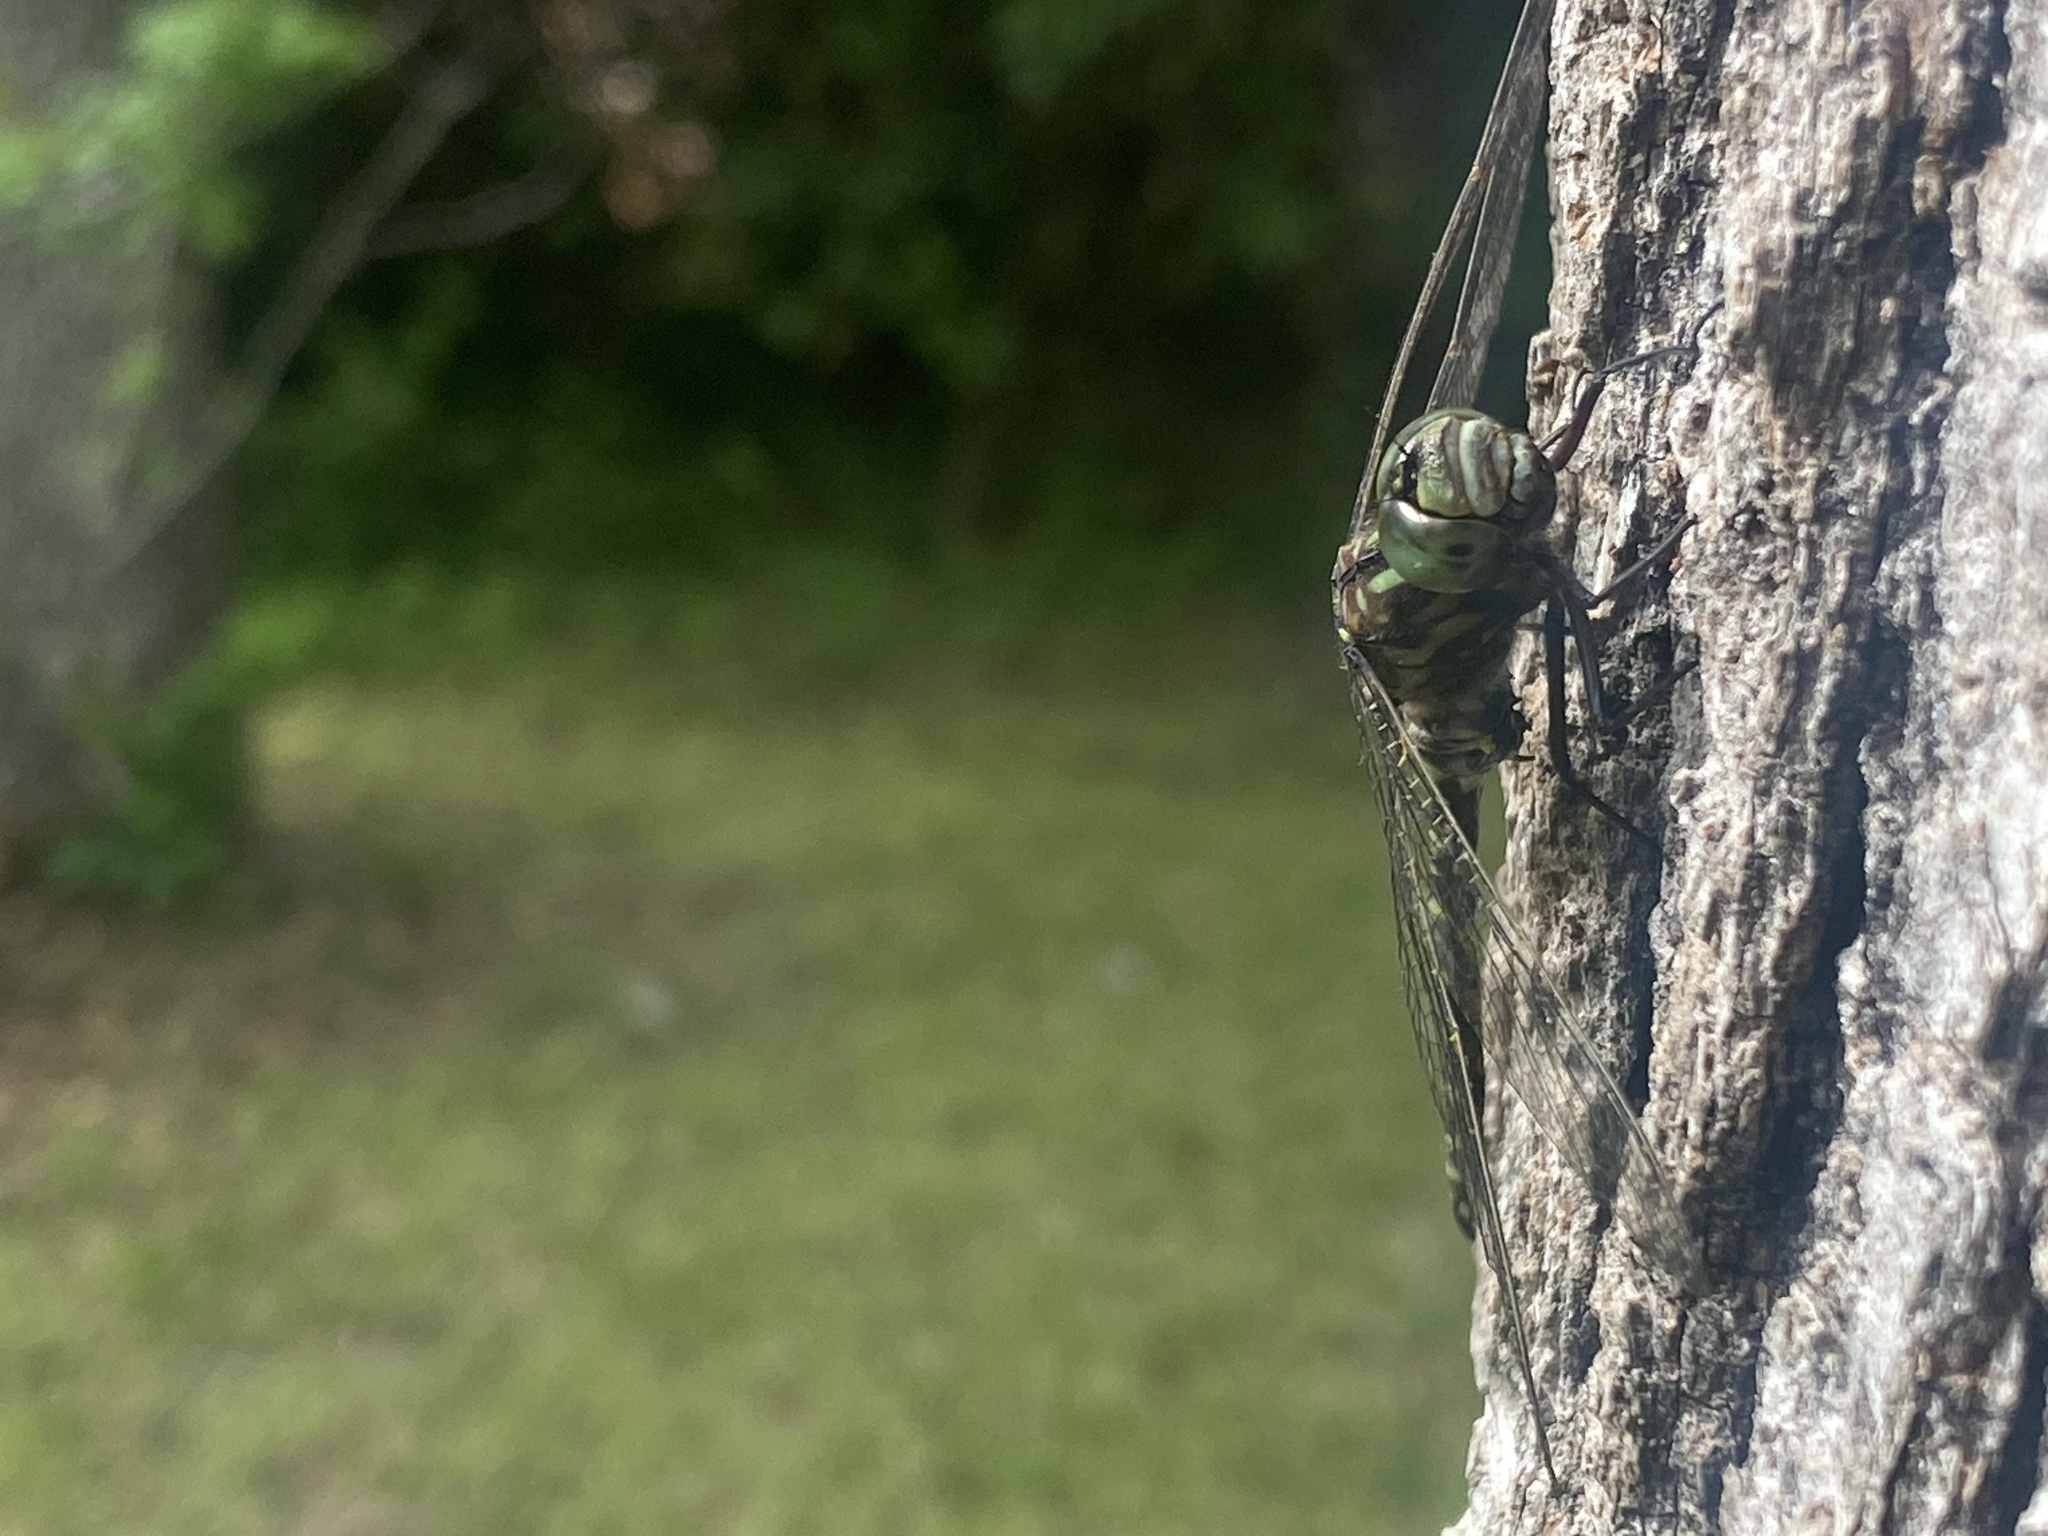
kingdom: Animalia
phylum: Arthropoda
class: Insecta
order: Odonata
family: Aeshnidae
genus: Gomphaeschna
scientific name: Gomphaeschna furcillata
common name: Harlequin darner
